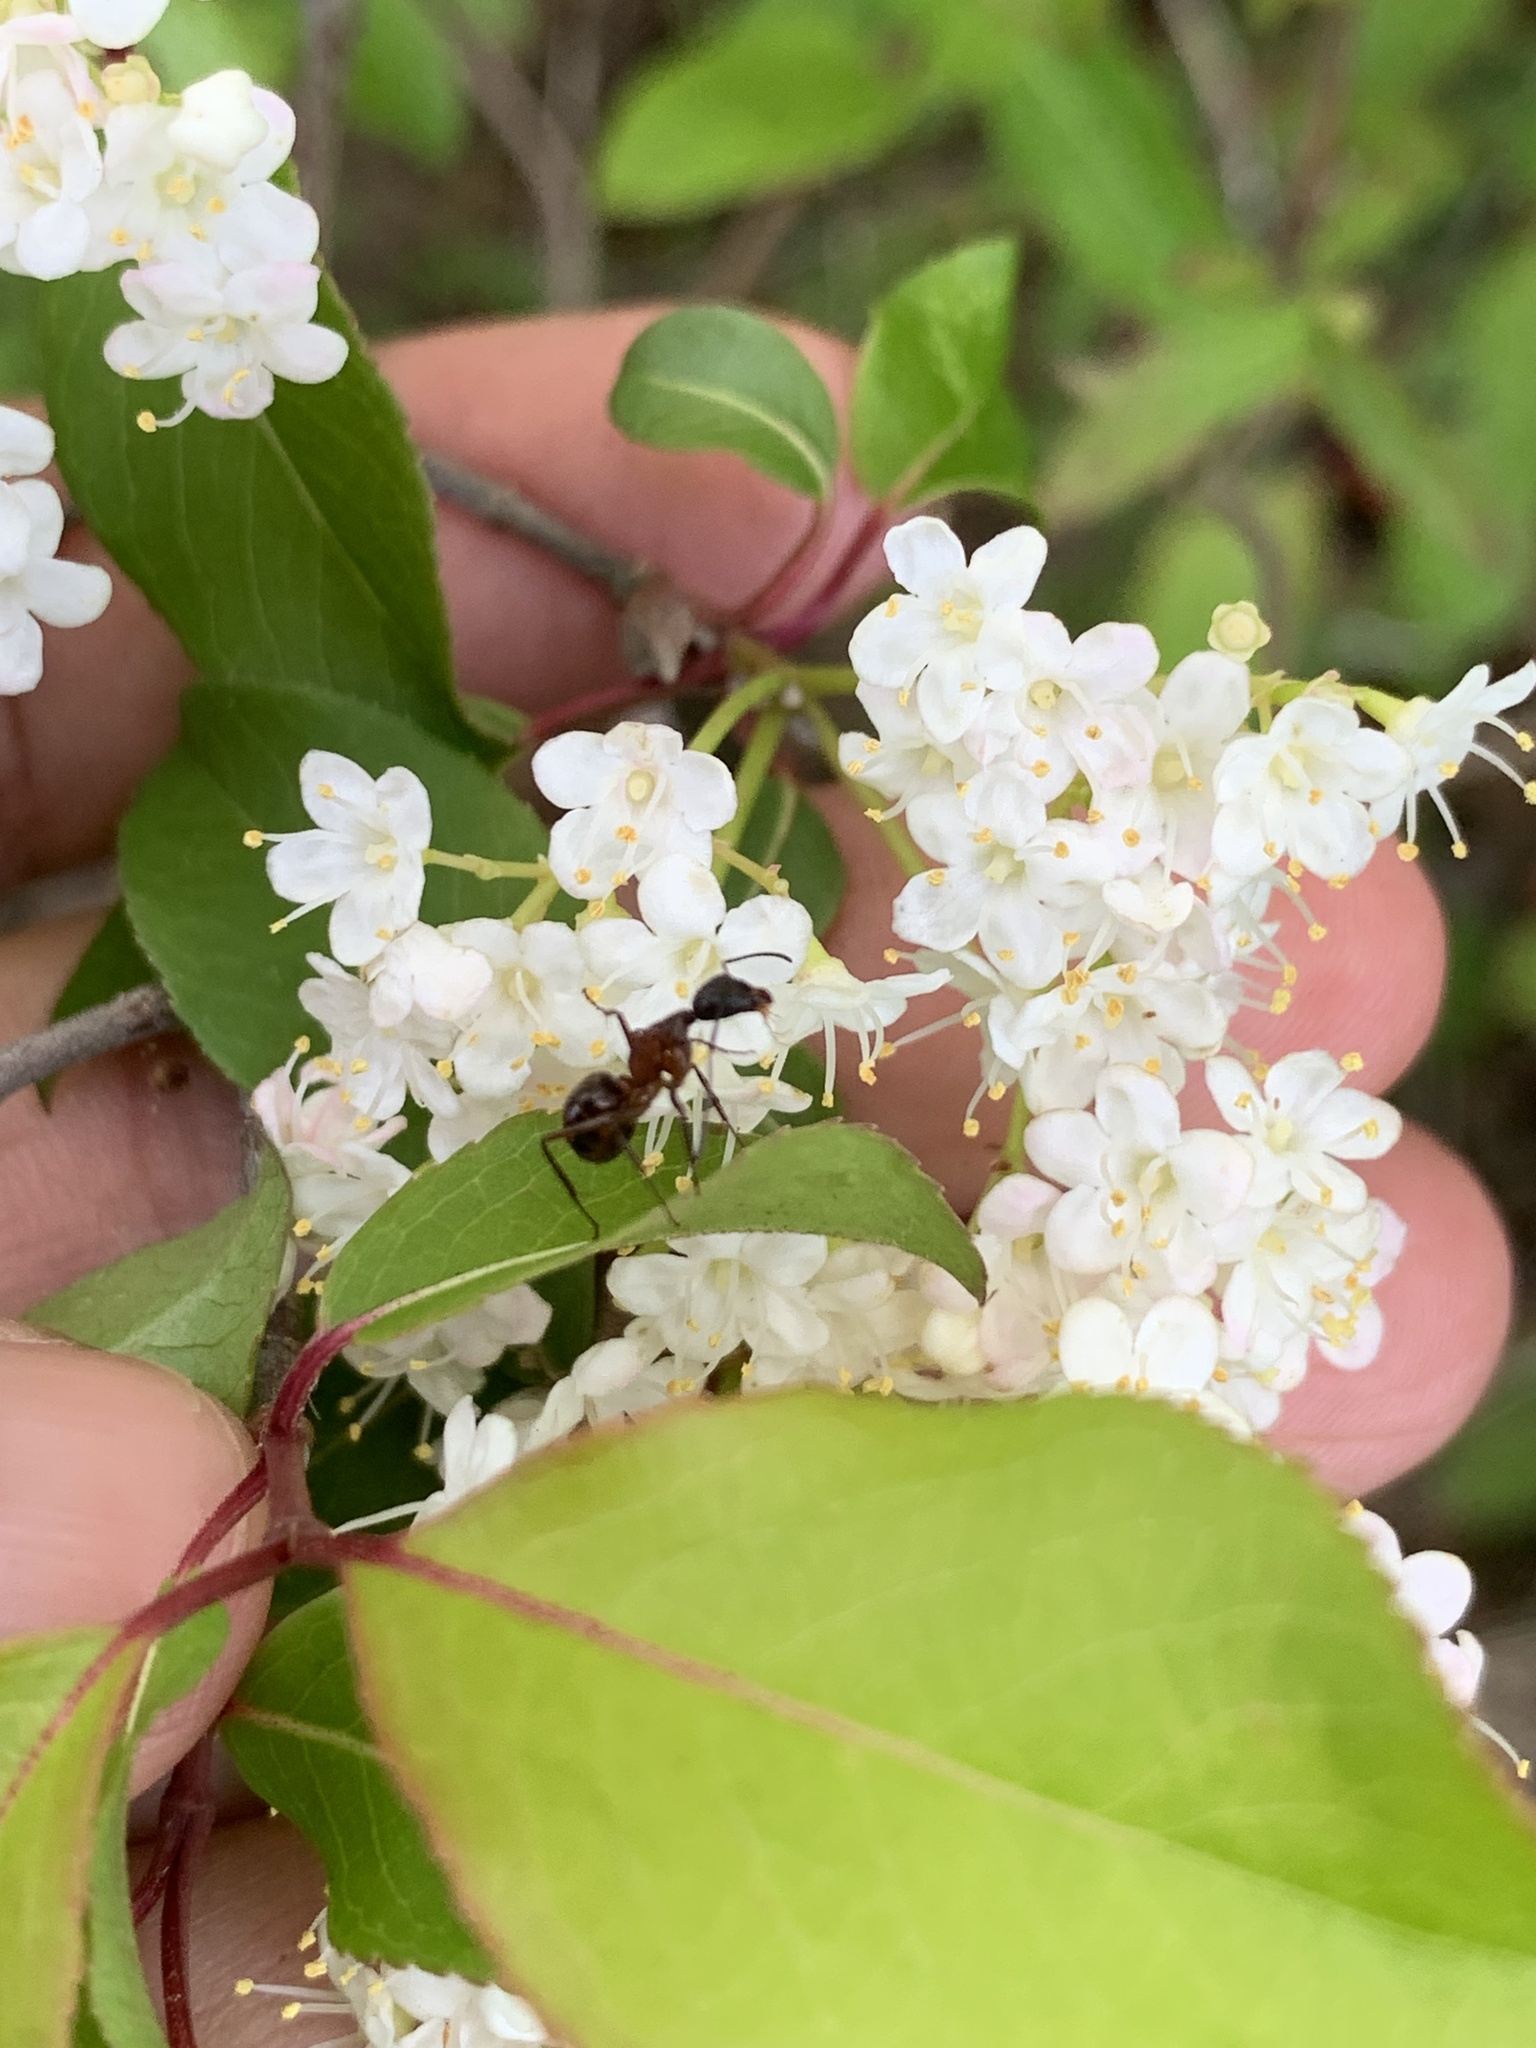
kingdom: Animalia
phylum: Arthropoda
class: Insecta
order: Hymenoptera
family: Formicidae
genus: Camponotus
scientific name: Camponotus chromaiodes
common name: Red carpenter ant
